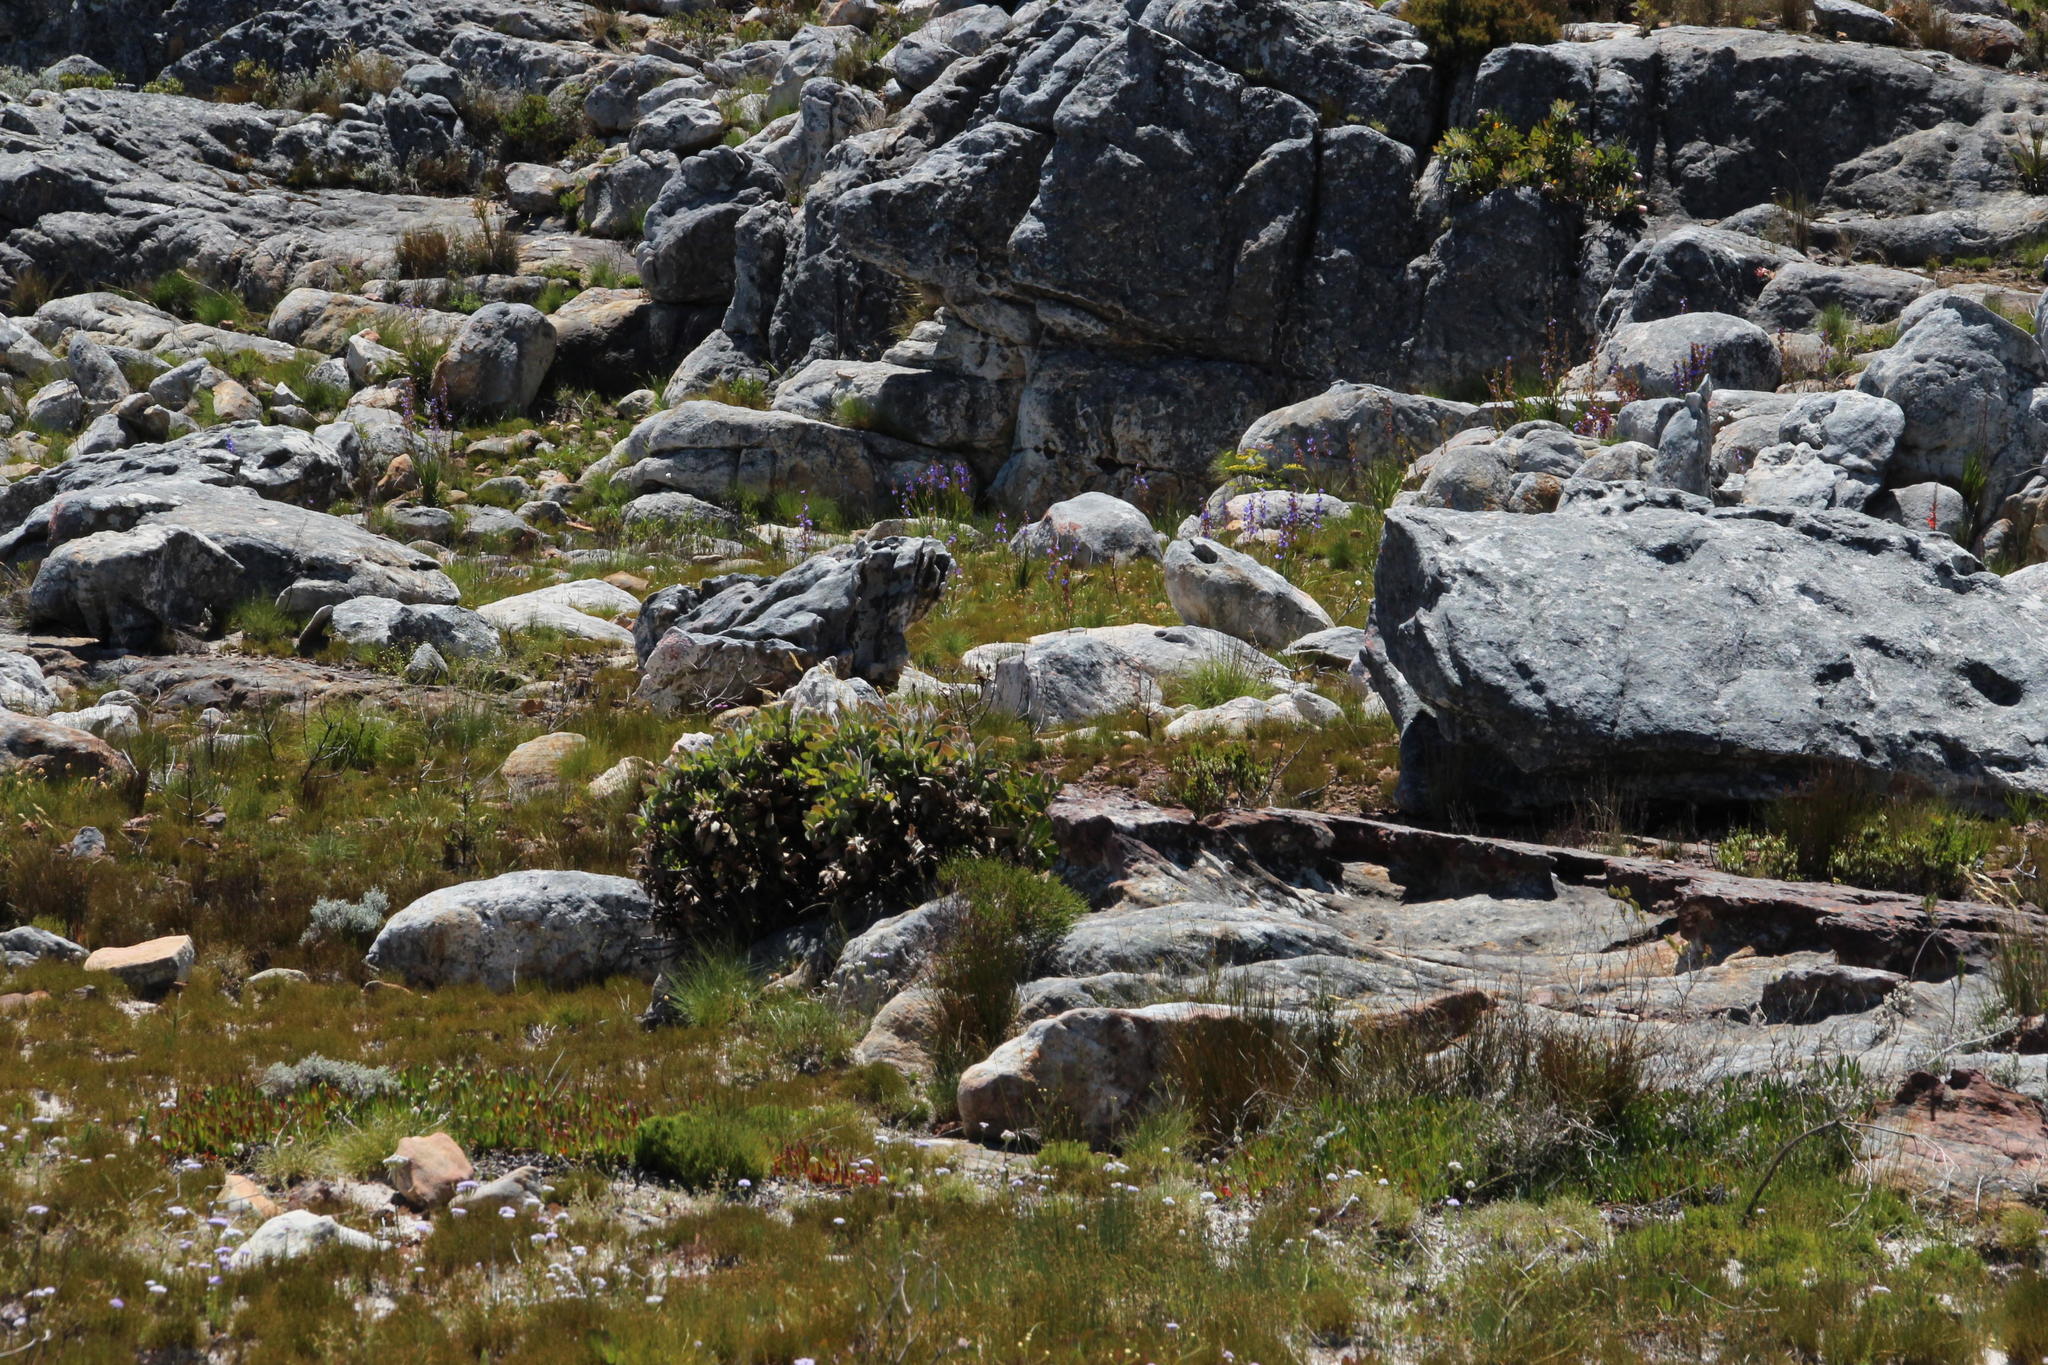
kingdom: Plantae
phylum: Tracheophyta
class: Magnoliopsida
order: Proteales
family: Proteaceae
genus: Protea
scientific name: Protea magnifica
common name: Bearded sugarbush
